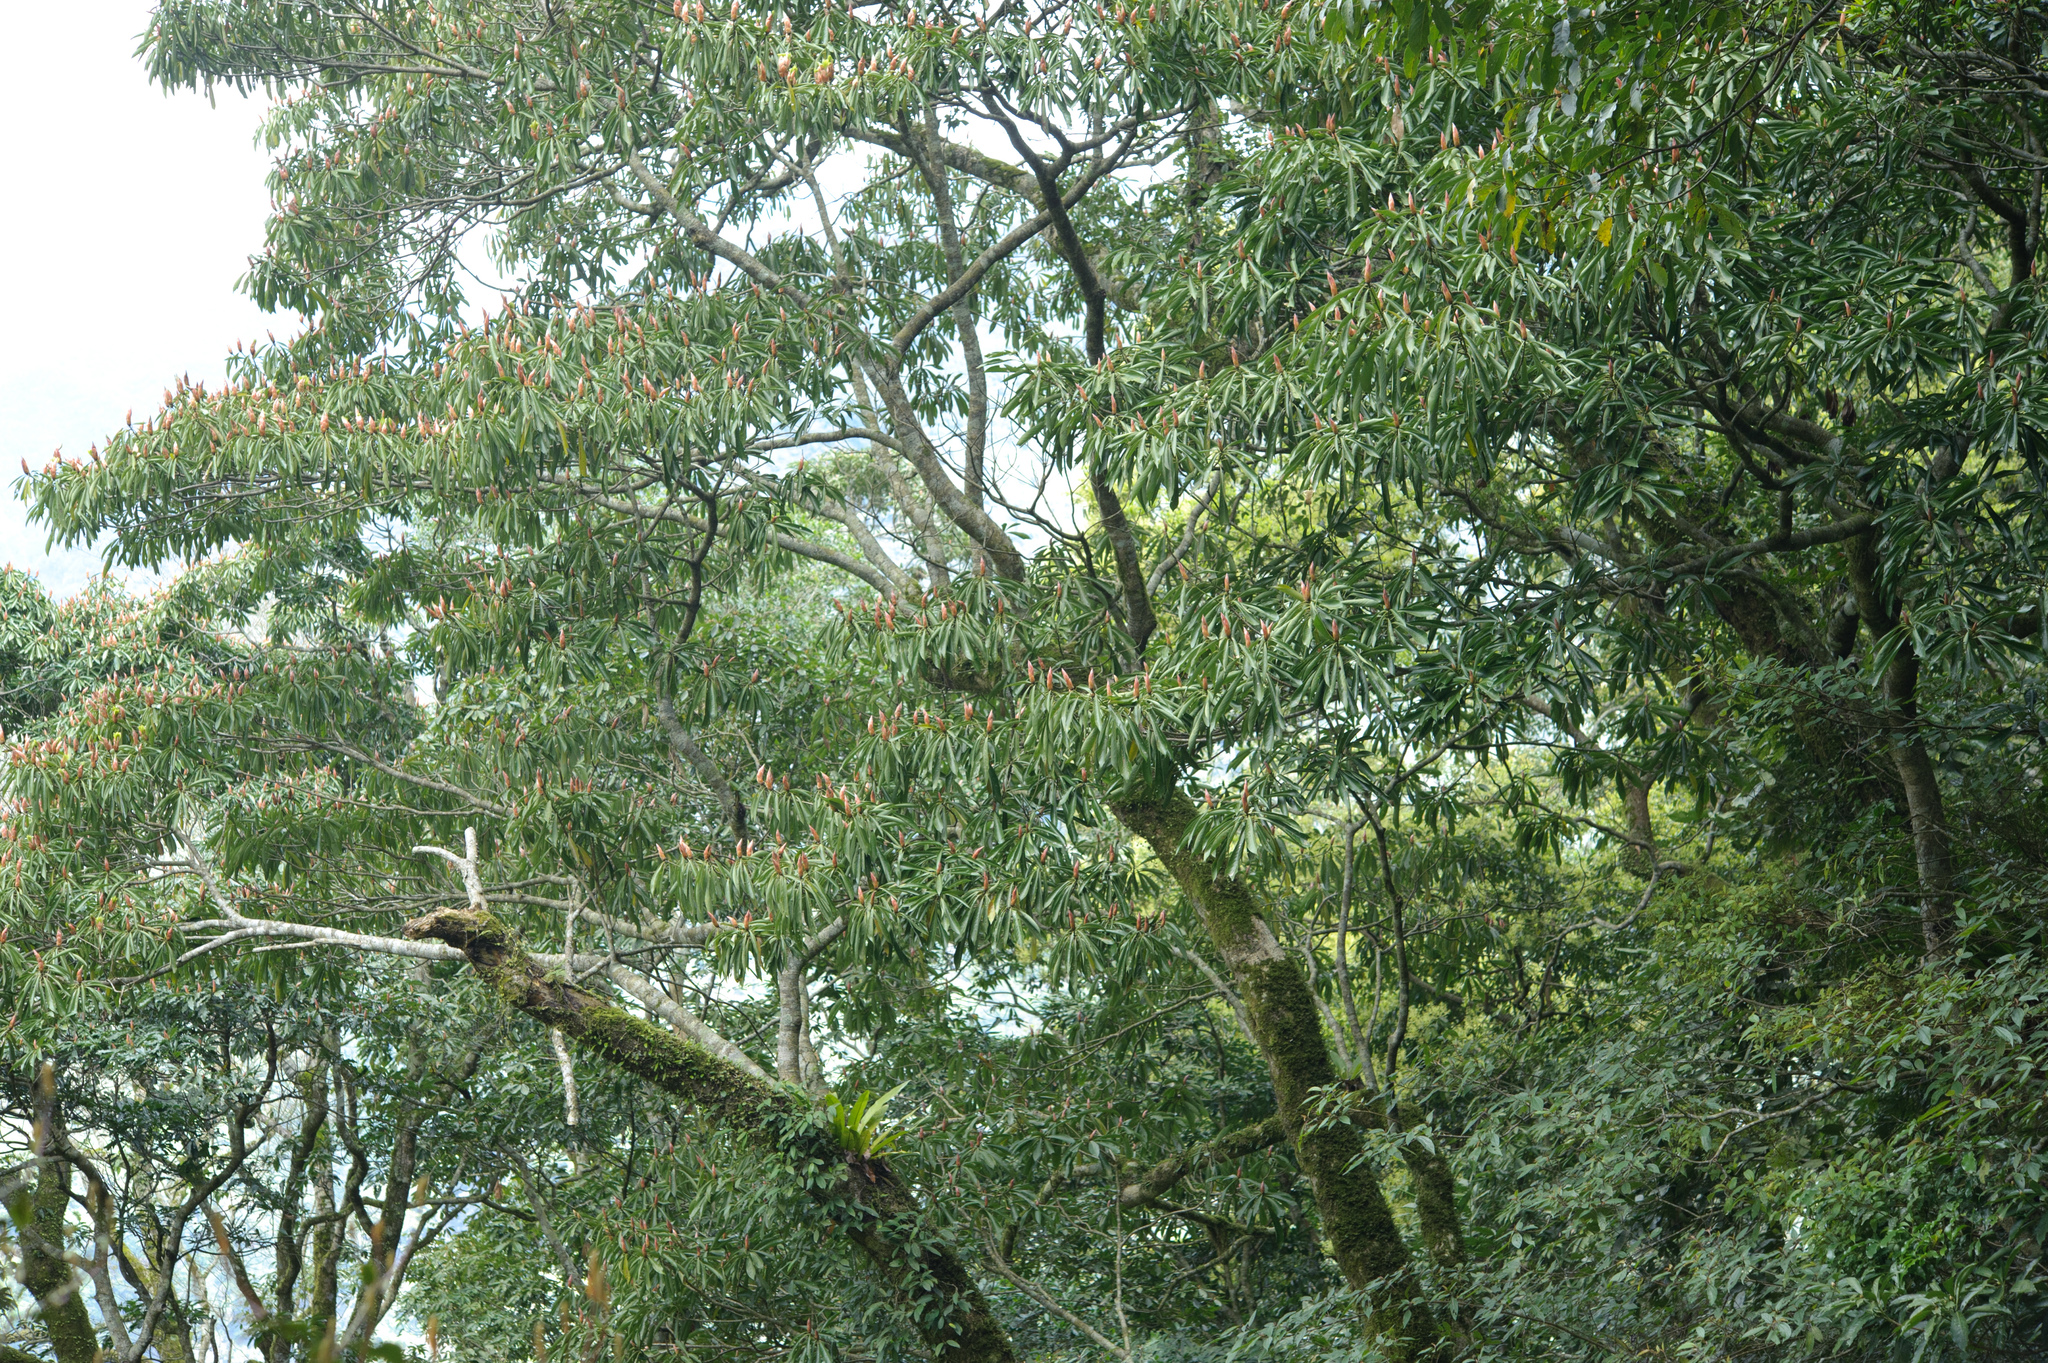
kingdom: Plantae
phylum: Tracheophyta
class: Magnoliopsida
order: Laurales
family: Lauraceae
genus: Machilus
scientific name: Machilus japonica
